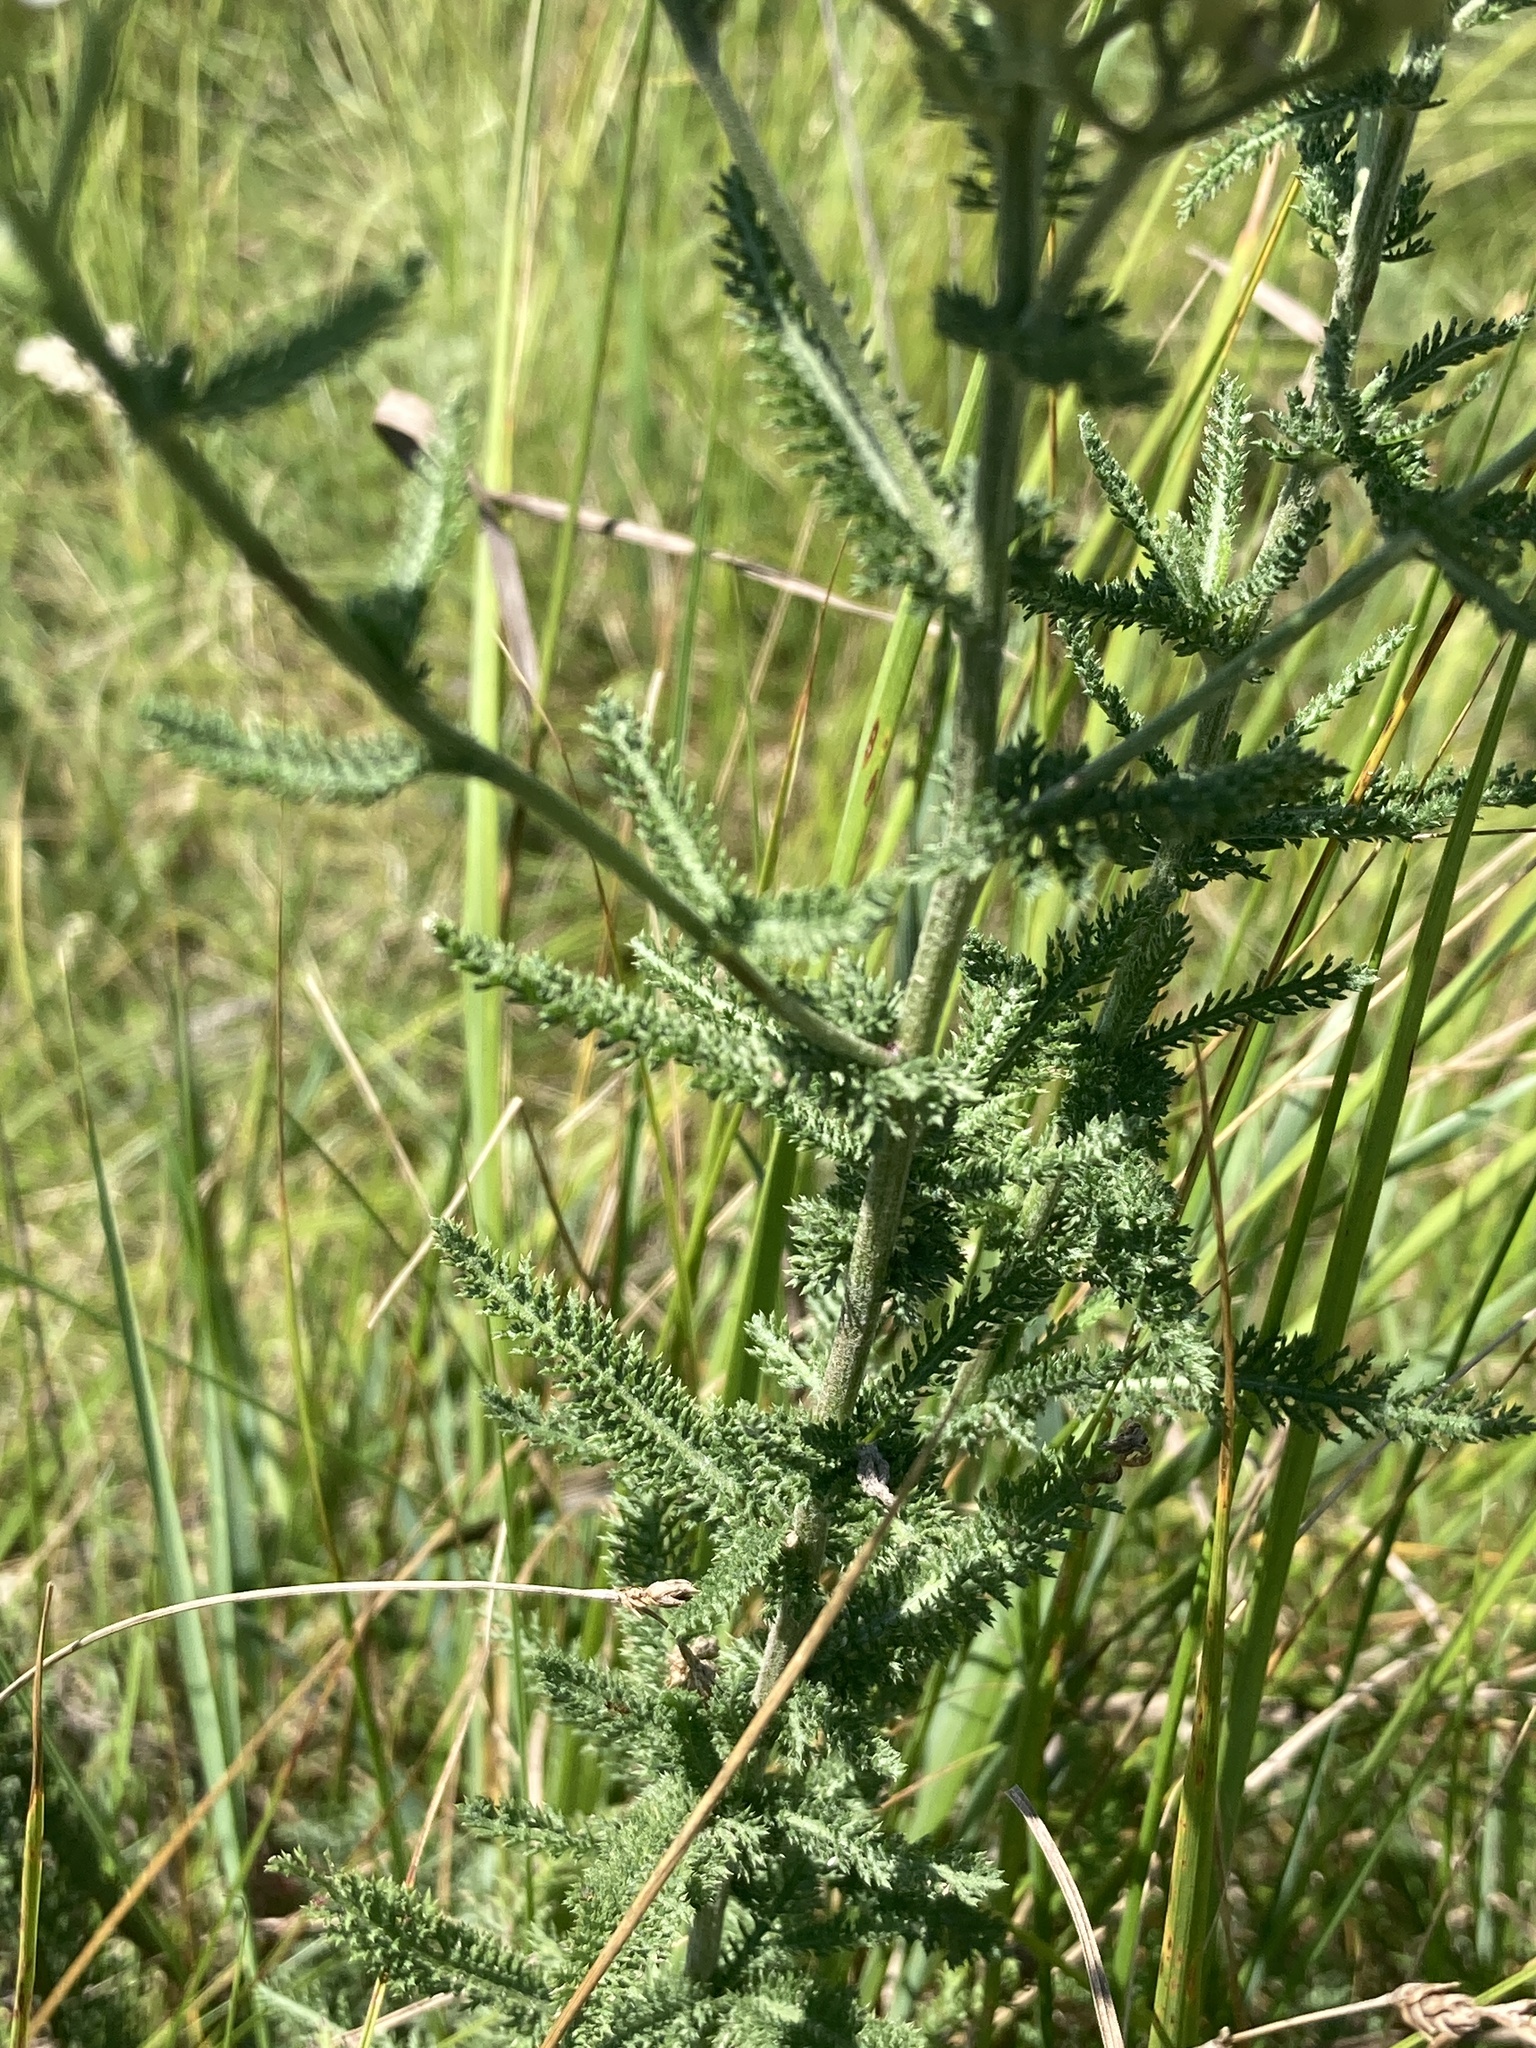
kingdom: Plantae
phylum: Tracheophyta
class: Magnoliopsida
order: Asterales
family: Asteraceae
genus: Achillea
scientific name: Achillea millefolium
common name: Yarrow
